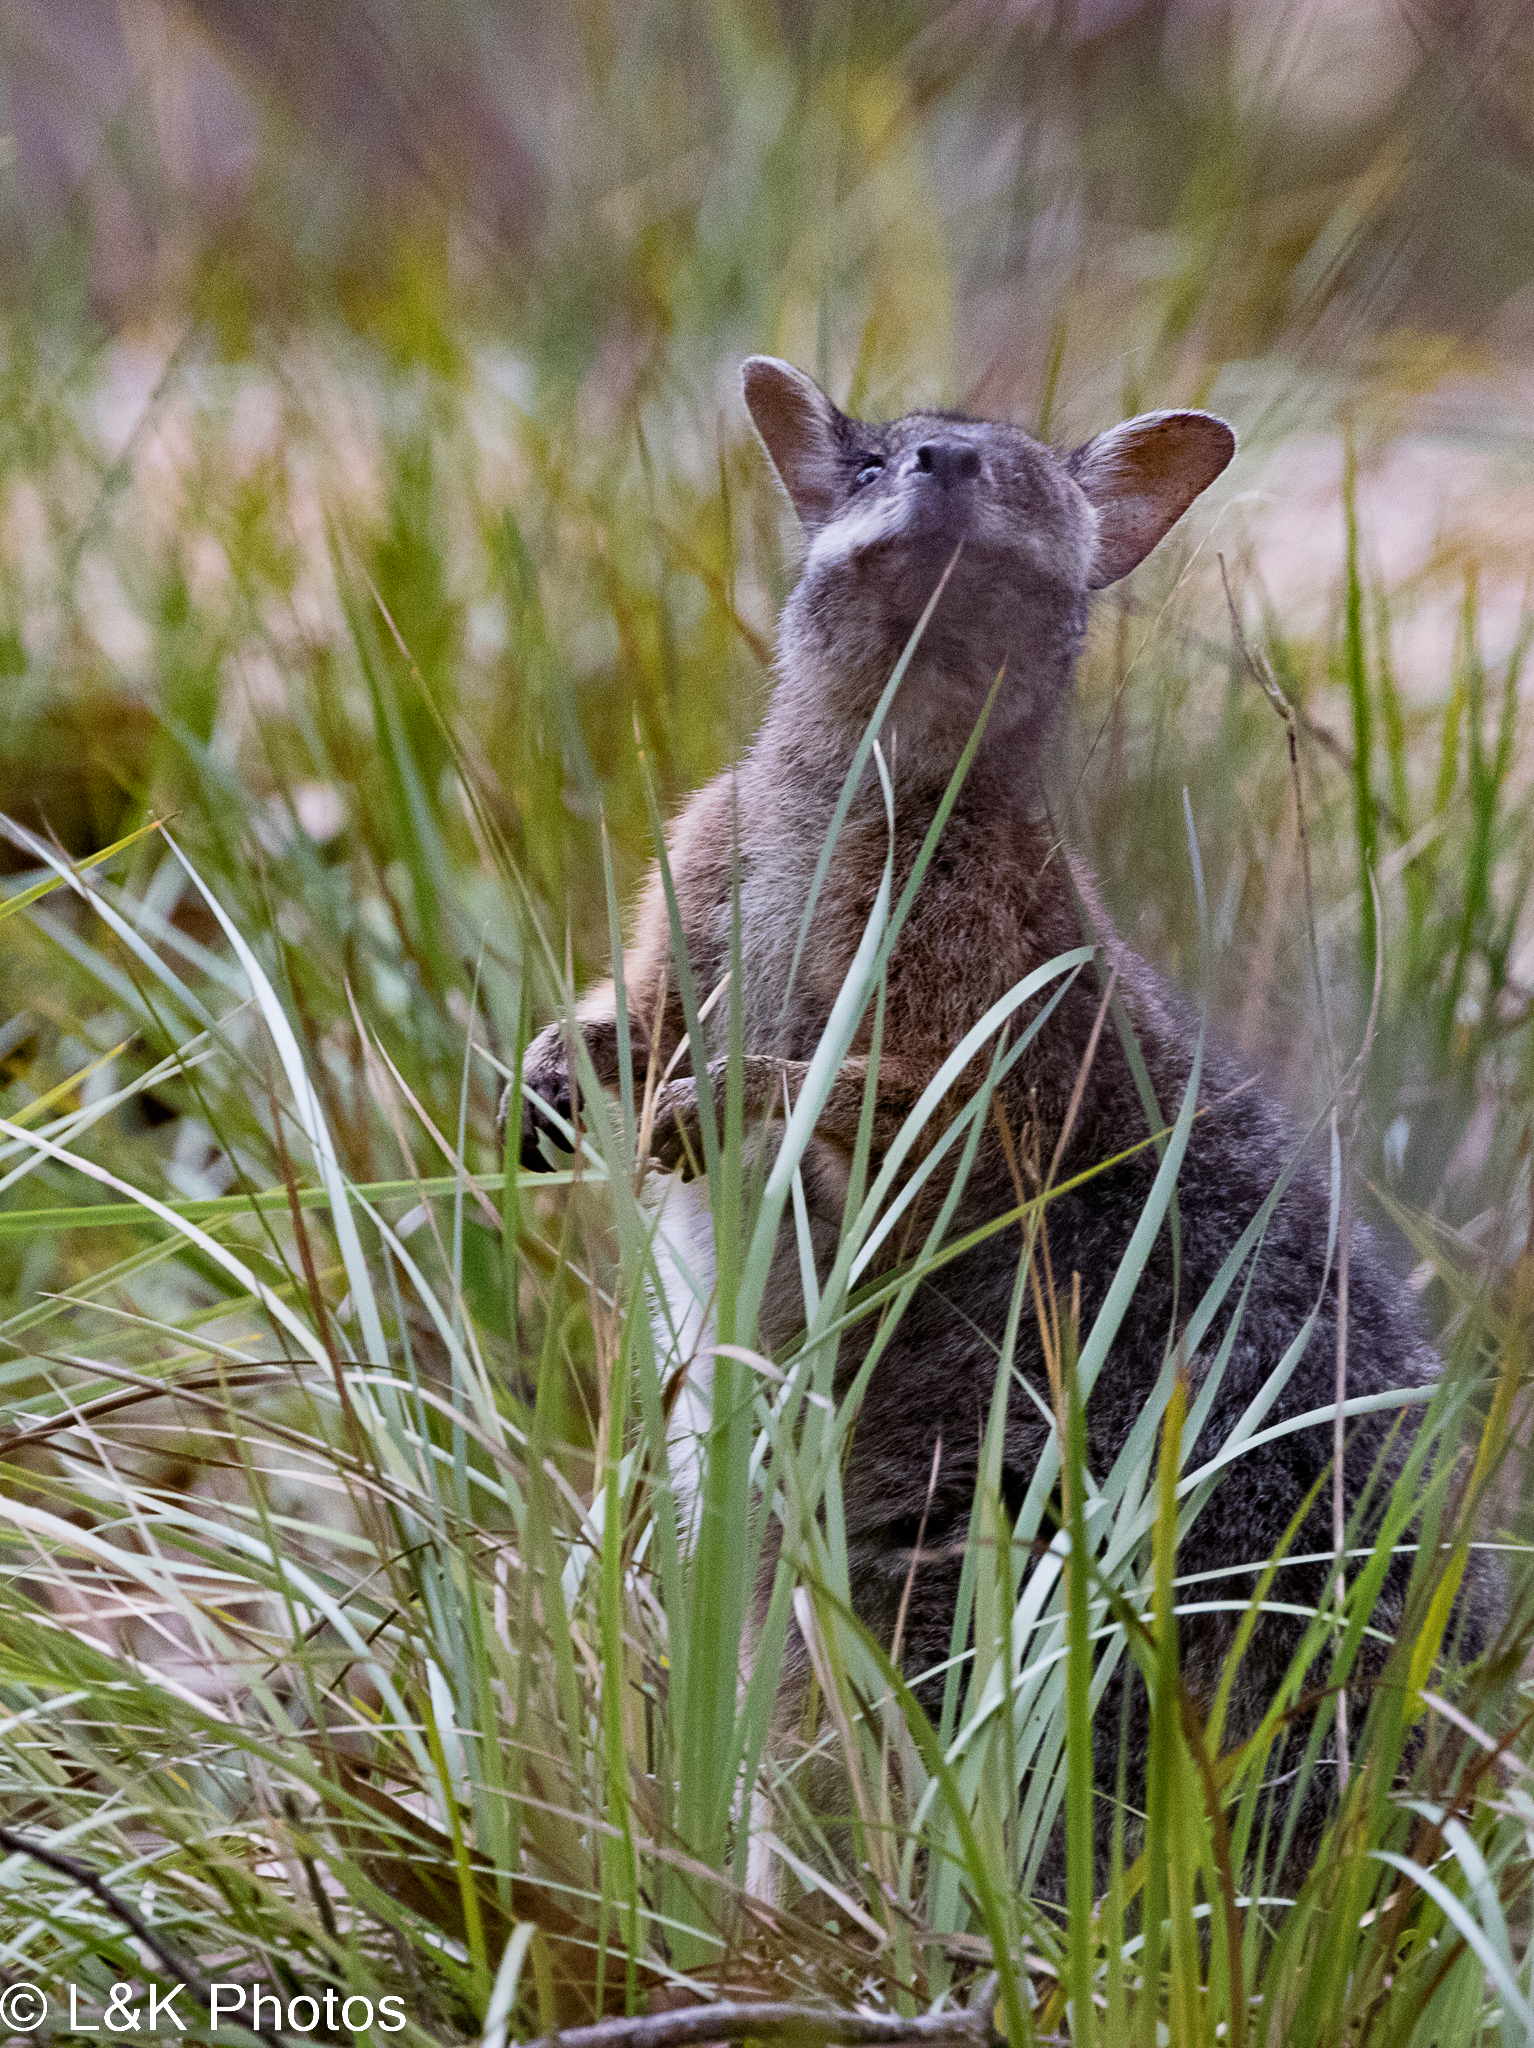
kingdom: Animalia
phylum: Chordata
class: Mammalia
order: Diprotodontia
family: Macropodidae
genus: Macropus
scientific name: Macropus eugenii
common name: Tammar wallaby
